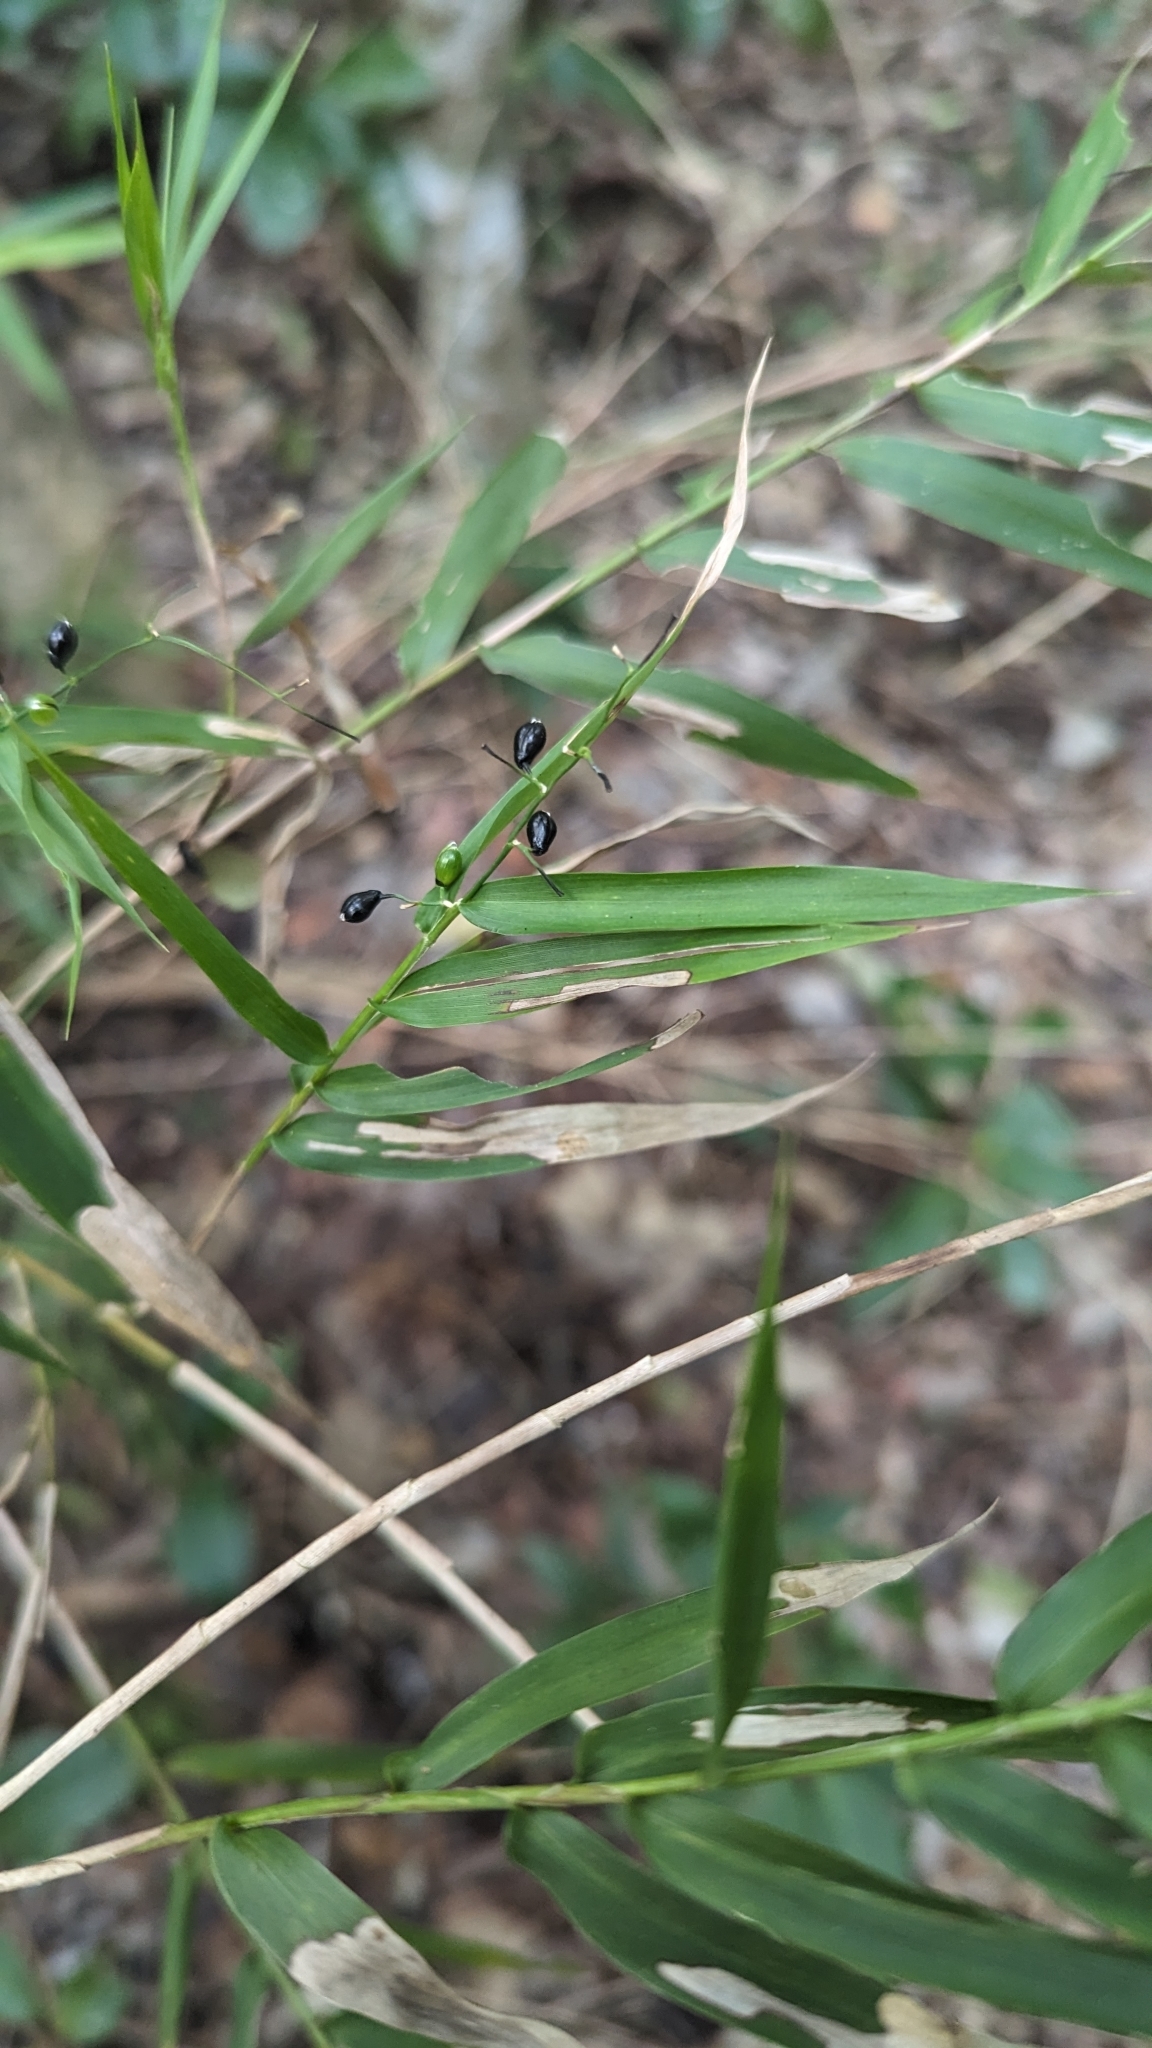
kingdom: Plantae
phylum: Tracheophyta
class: Liliopsida
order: Poales
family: Poaceae
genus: Lasiacis
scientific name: Lasiacis divaricata
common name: Smallcane
